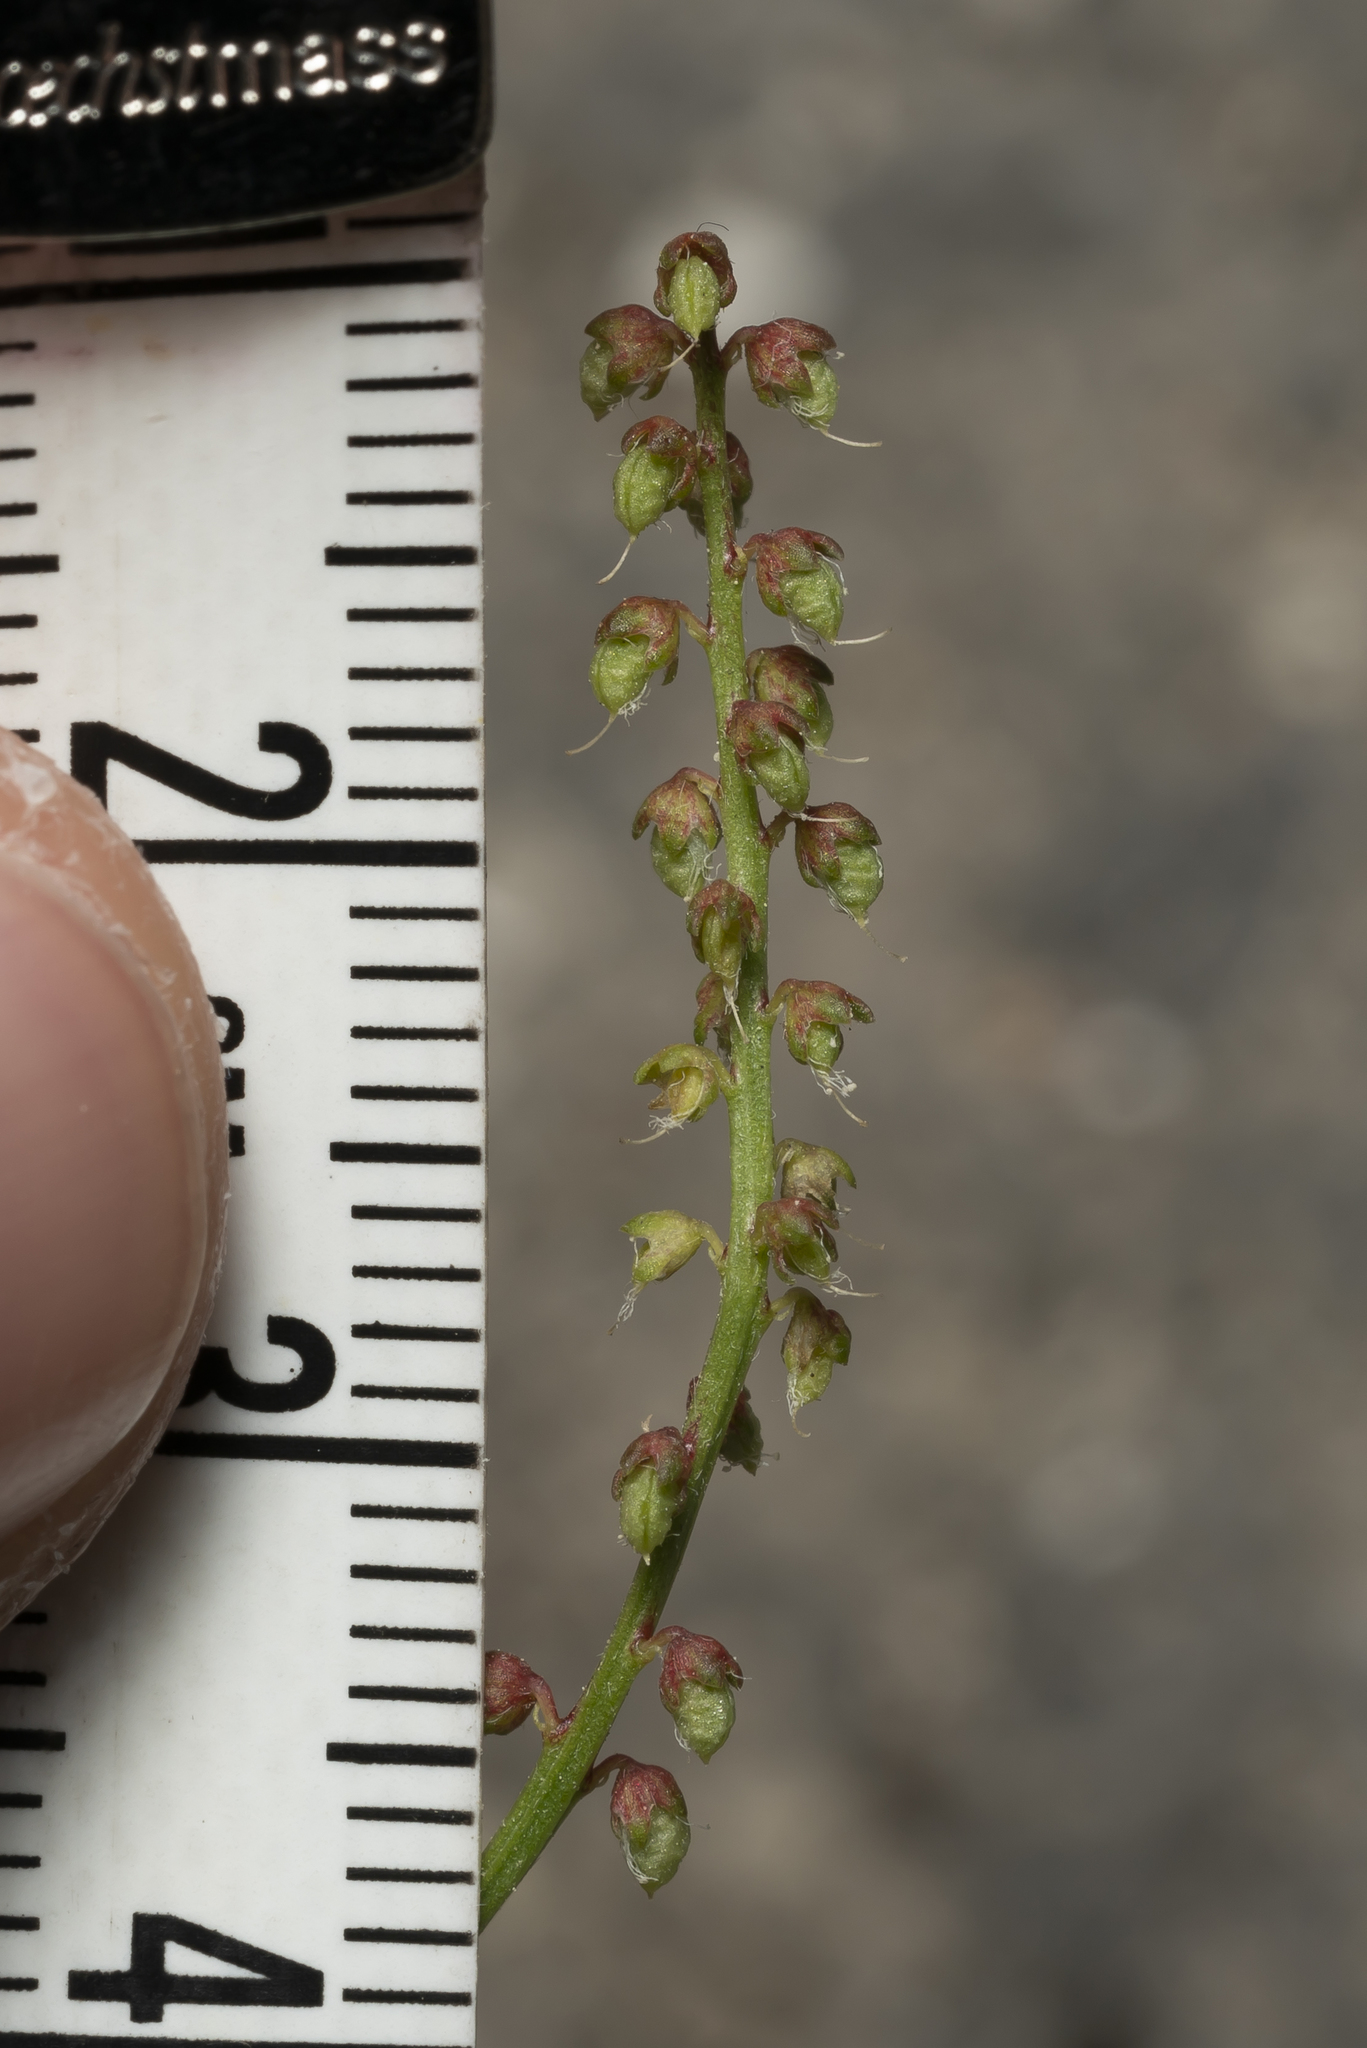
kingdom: Plantae
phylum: Tracheophyta
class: Magnoliopsida
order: Fabales
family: Fabaceae
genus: Melilotus
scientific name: Melilotus indicus
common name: Small melilot
